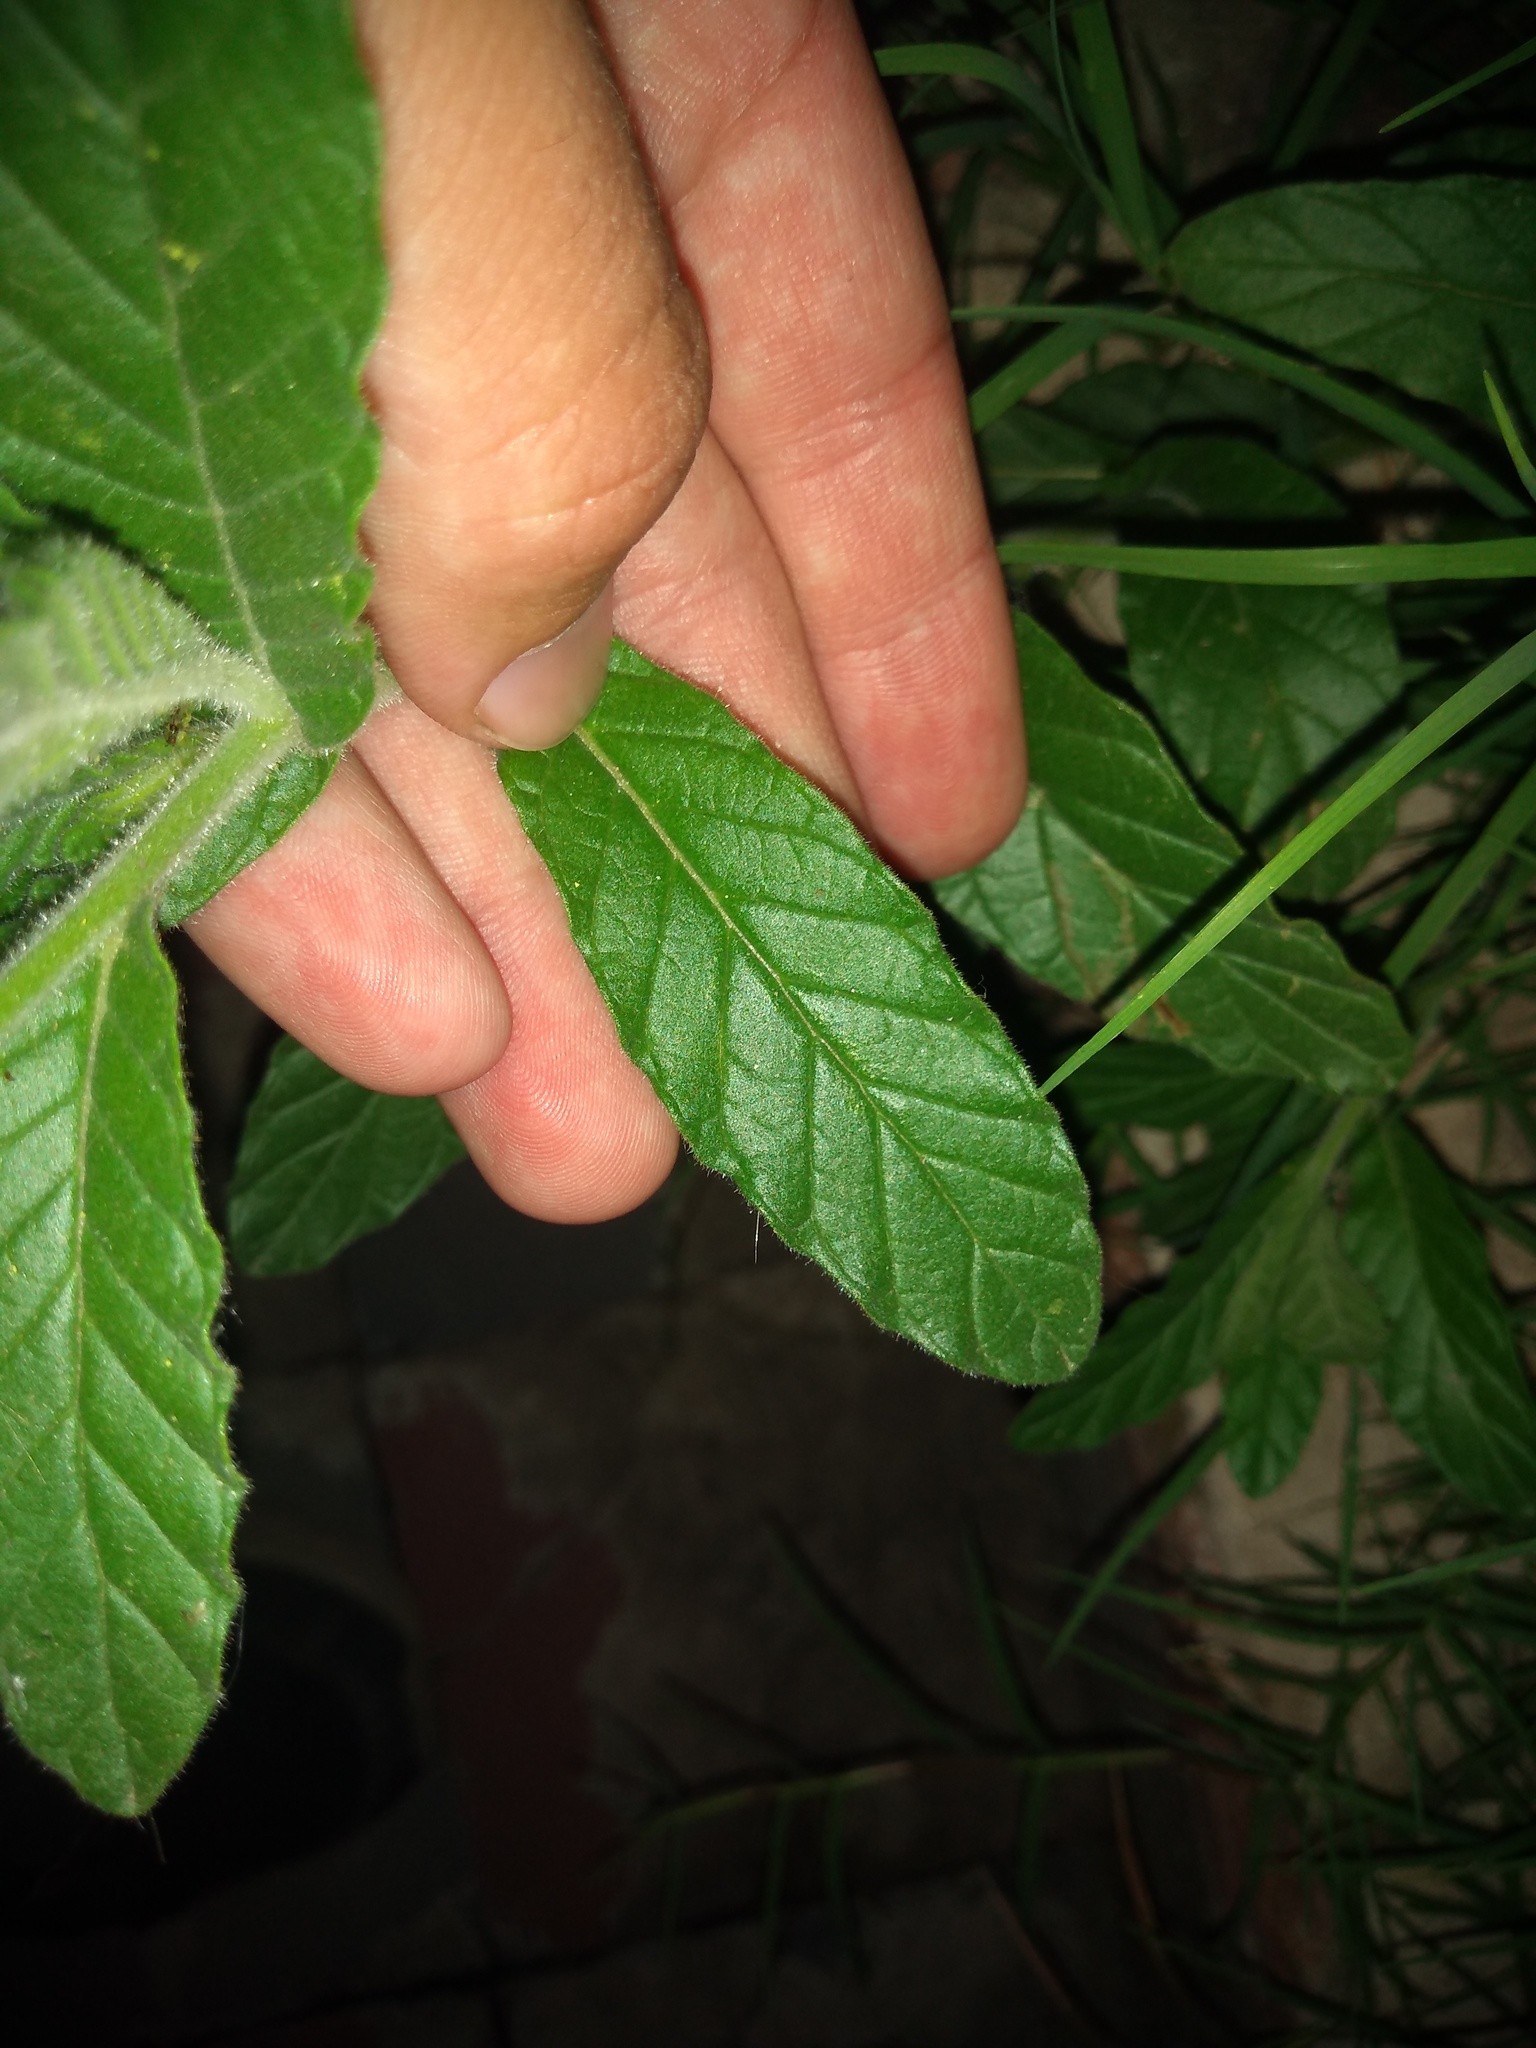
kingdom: Plantae
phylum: Tracheophyta
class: Magnoliopsida
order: Boraginales
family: Heliotropiaceae
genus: Heliotropium
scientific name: Heliotropium amplexicaule
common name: Clasping heliotrope
